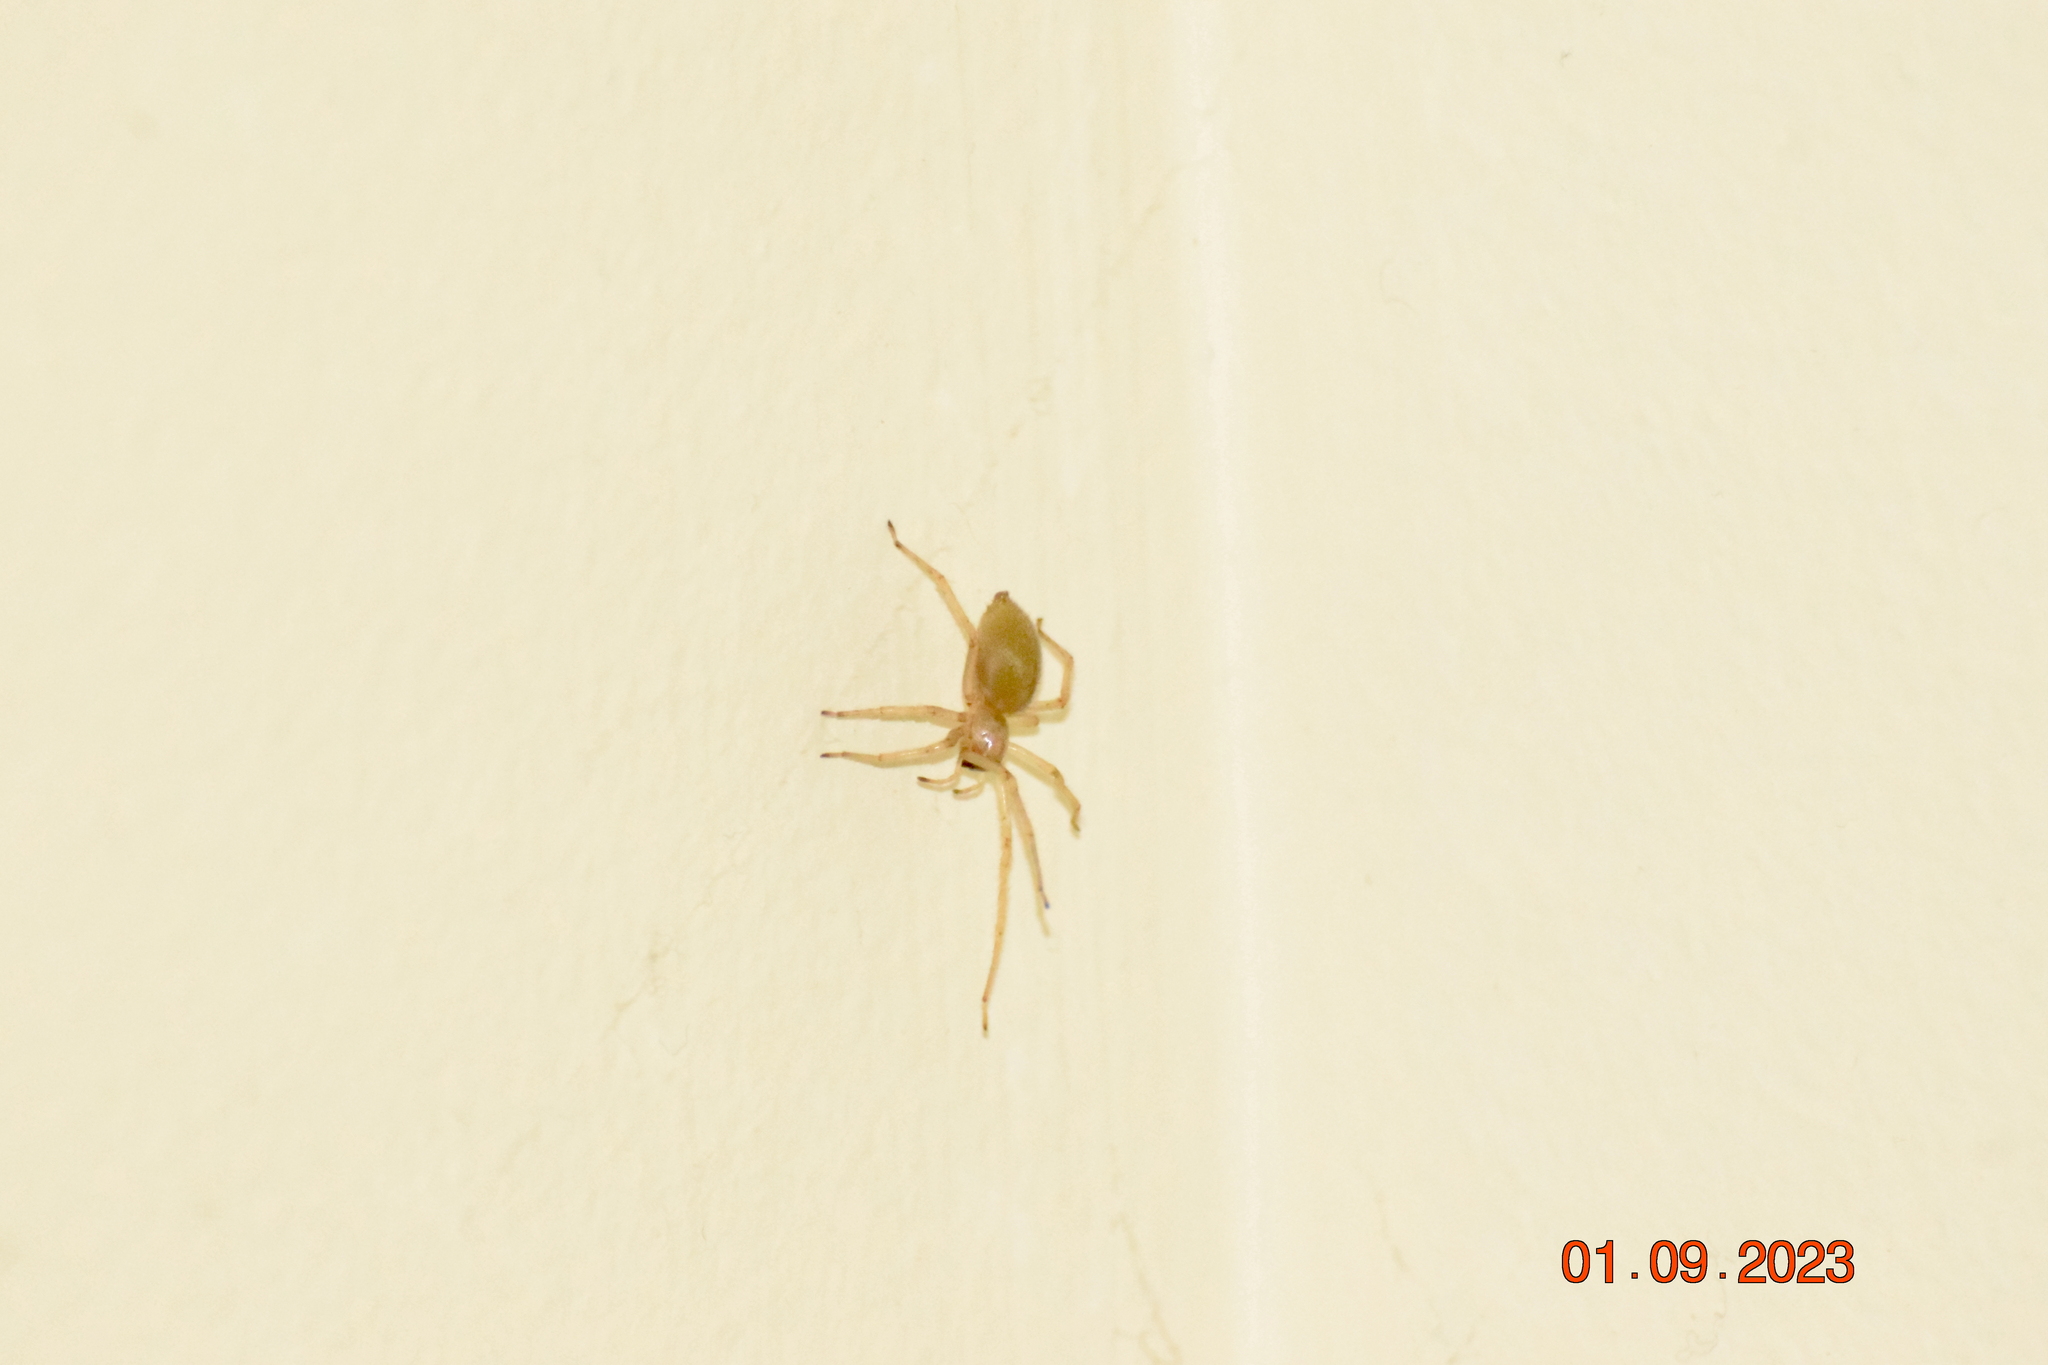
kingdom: Animalia
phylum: Arthropoda
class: Arachnida
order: Araneae
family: Cheiracanthiidae
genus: Cheiracanthium
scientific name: Cheiracanthium mildei
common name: Northern yellow sac spider
